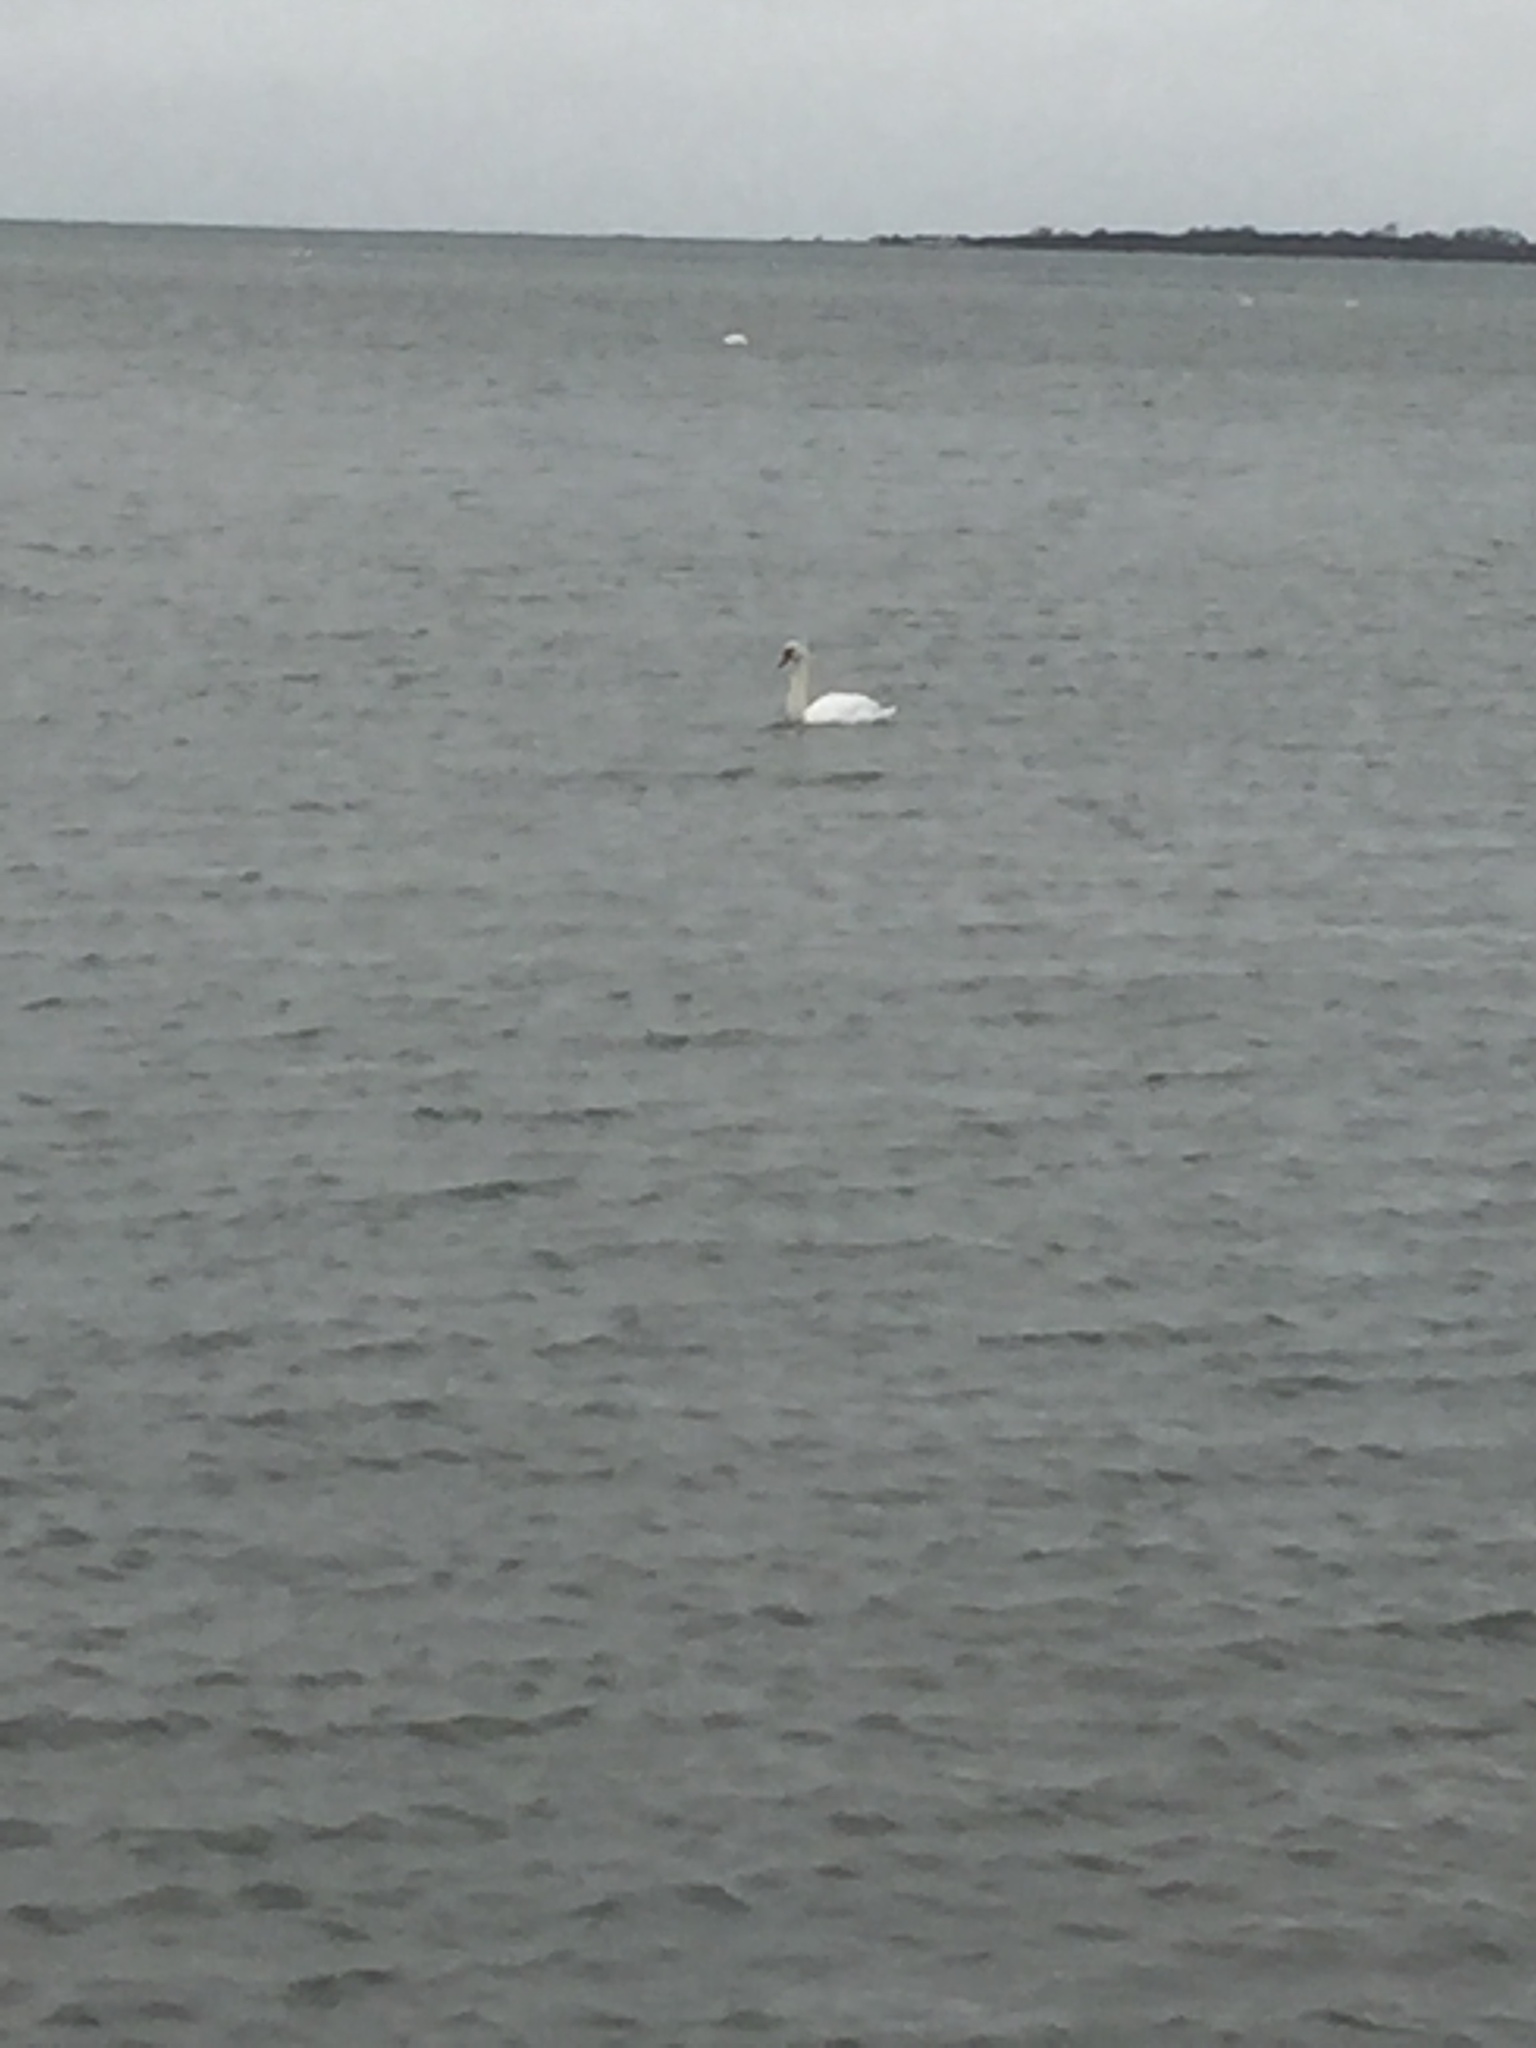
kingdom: Animalia
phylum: Chordata
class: Aves
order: Anseriformes
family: Anatidae
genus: Cygnus
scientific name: Cygnus olor
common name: Mute swan
